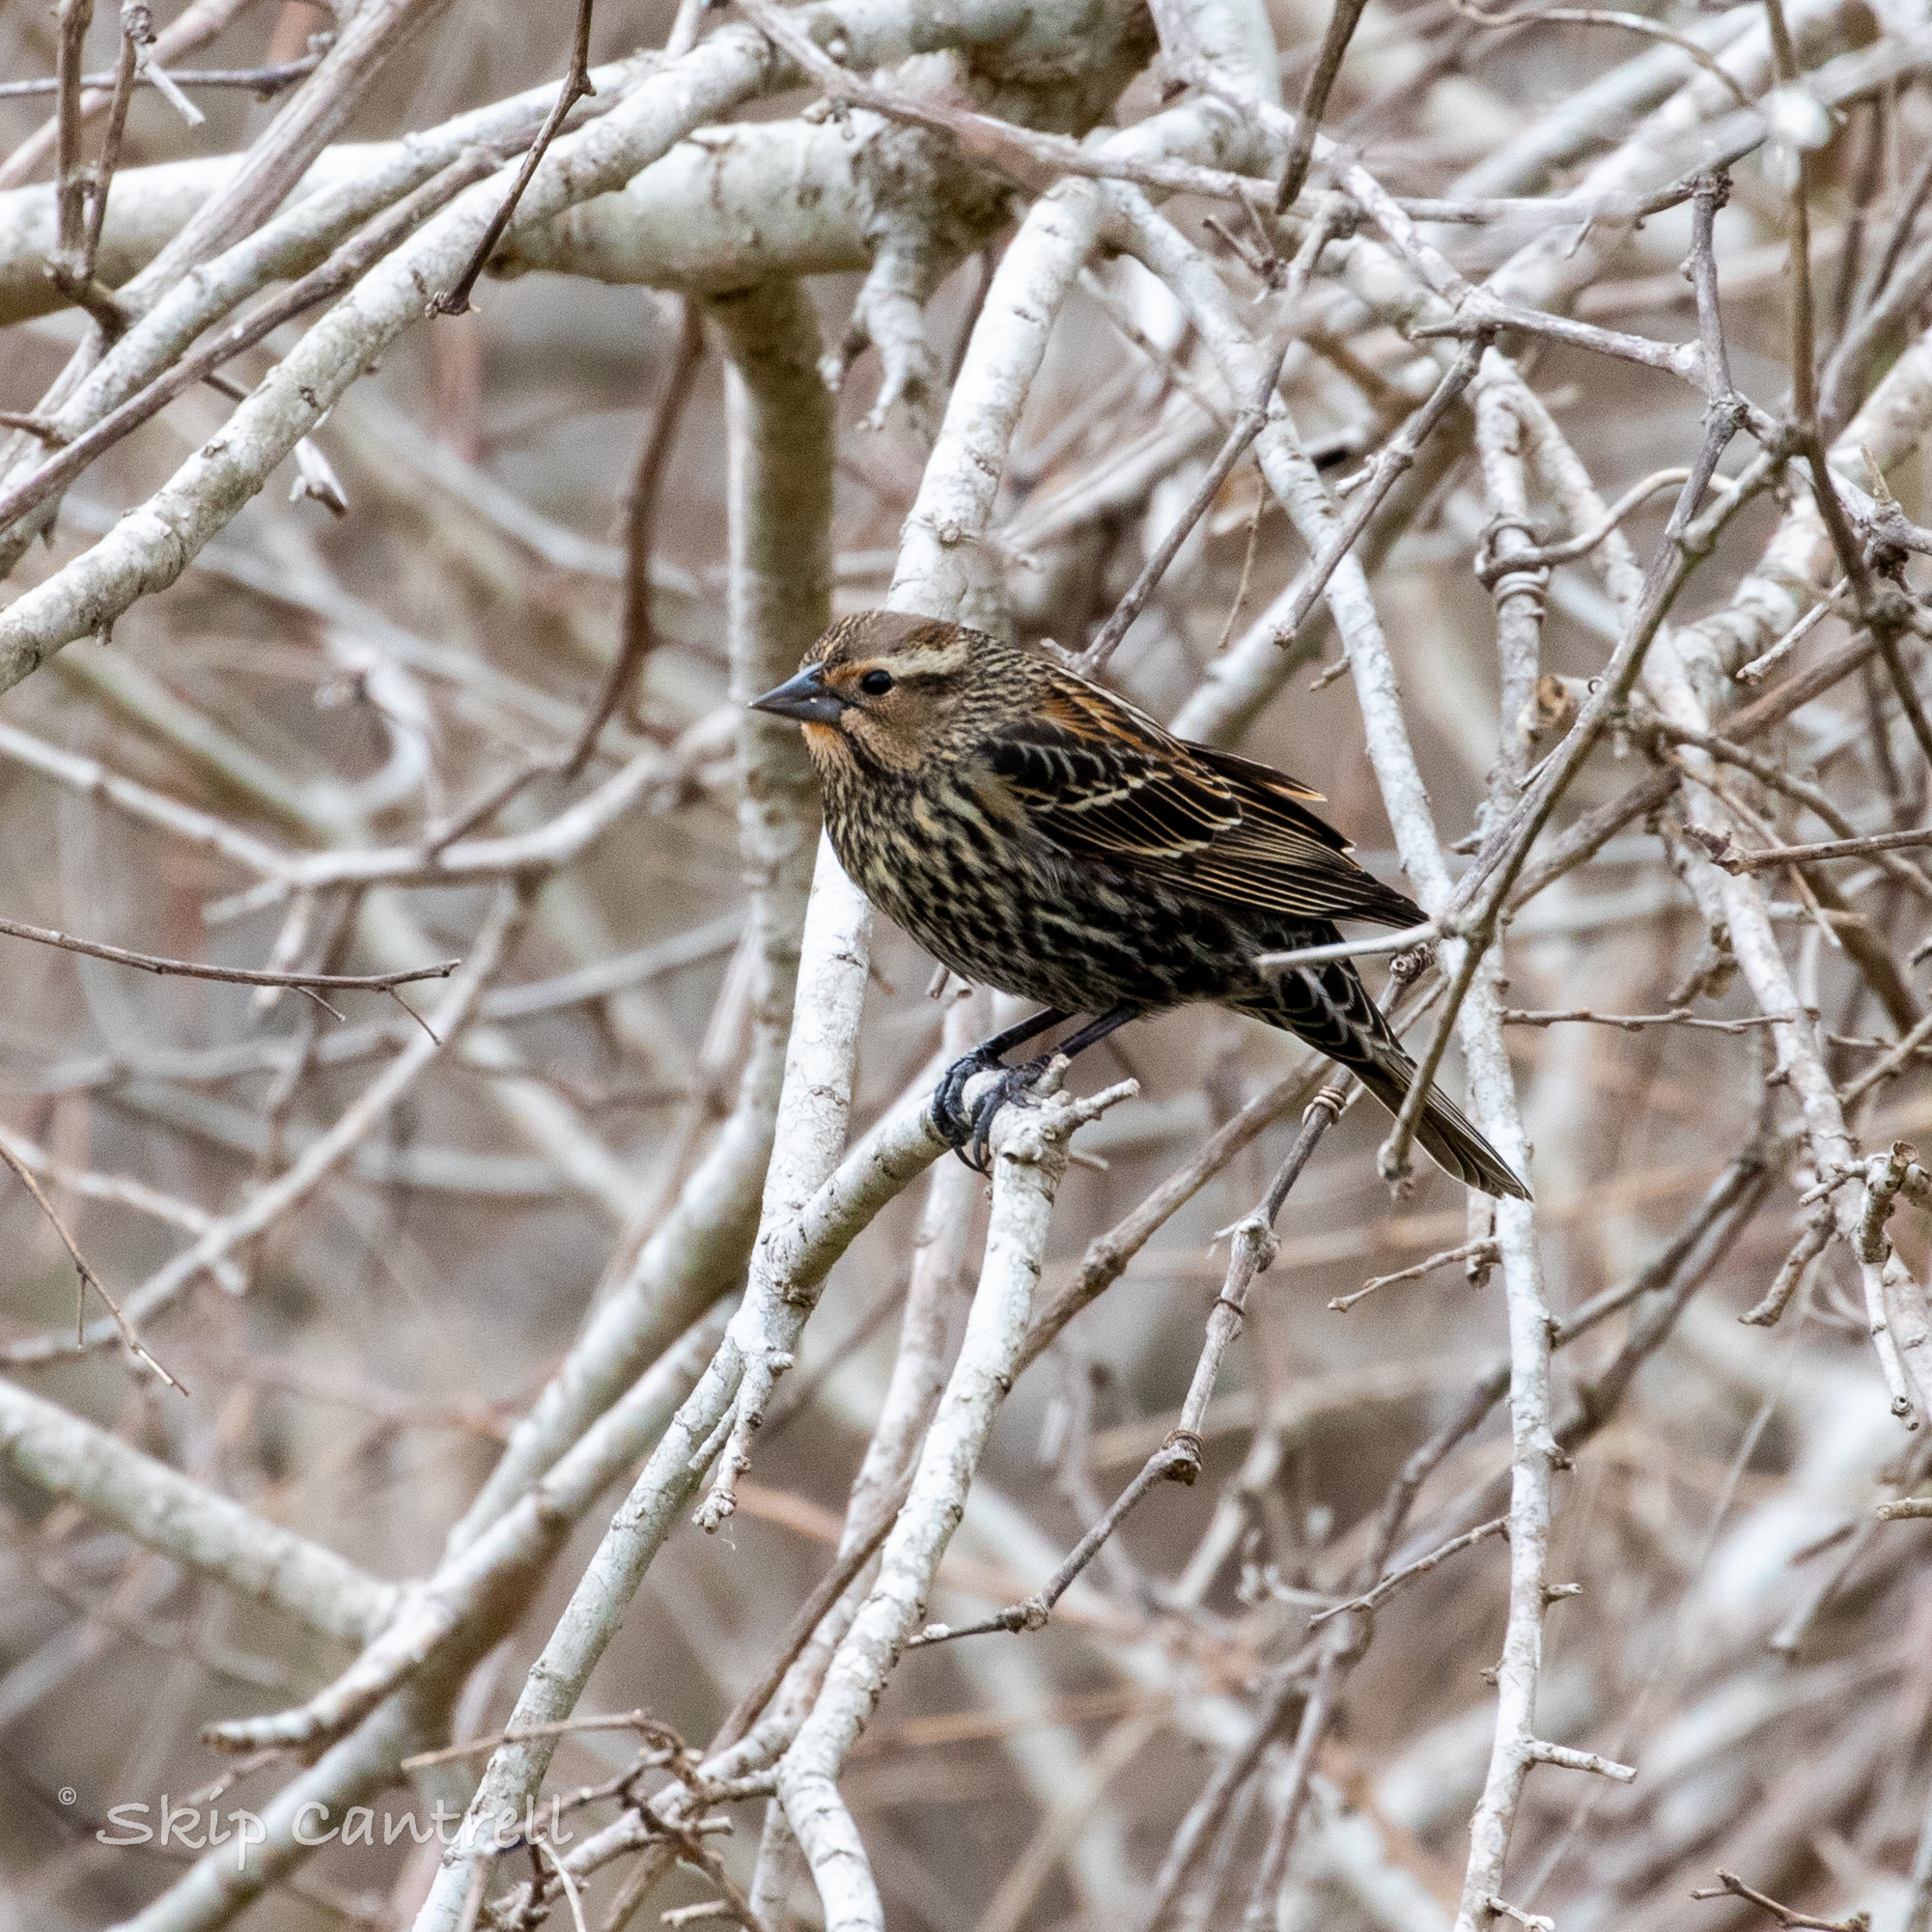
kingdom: Animalia
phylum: Chordata
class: Aves
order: Passeriformes
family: Icteridae
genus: Agelaius
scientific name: Agelaius phoeniceus
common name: Red-winged blackbird
